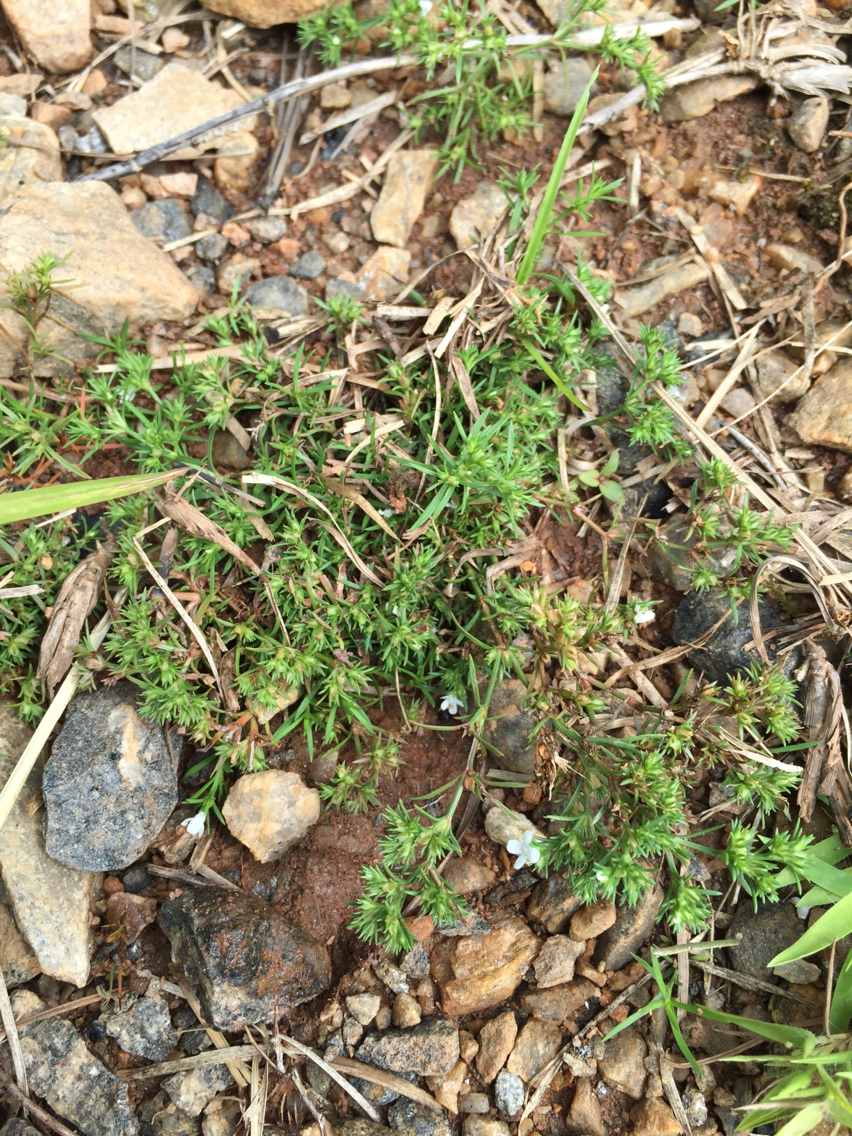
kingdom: Plantae
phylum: Tracheophyta
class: Magnoliopsida
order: Lamiales
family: Tetrachondraceae
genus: Polypremum
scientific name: Polypremum procumbens
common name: Juniper-leaf
